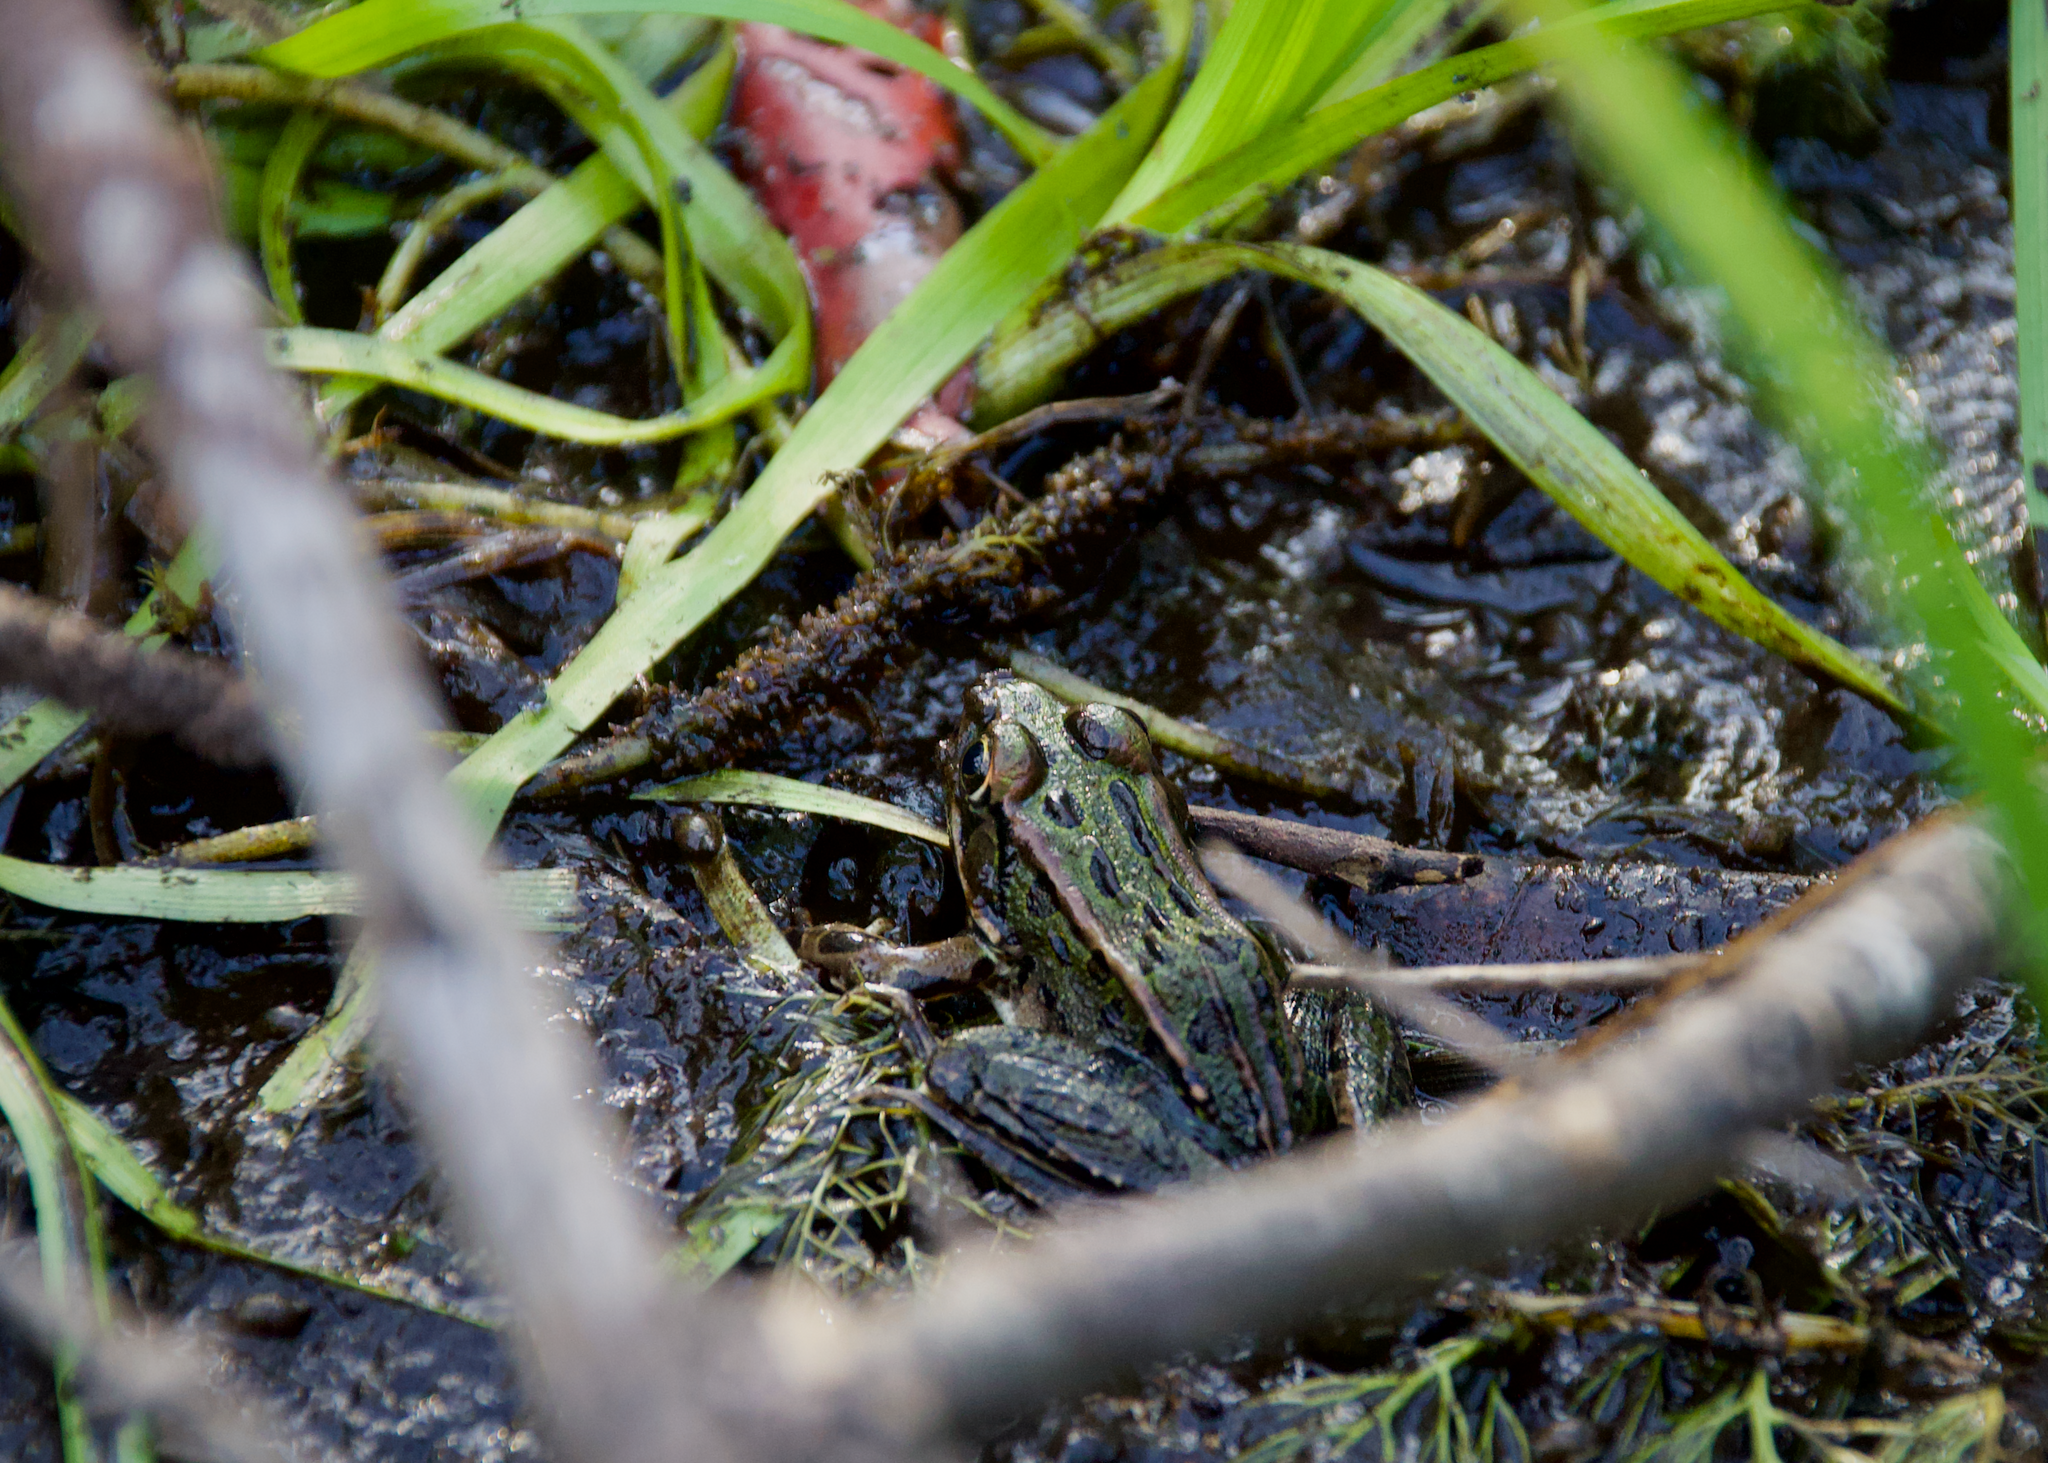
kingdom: Animalia
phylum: Chordata
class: Amphibia
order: Anura
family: Ranidae
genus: Lithobates
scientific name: Lithobates pipiens
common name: Northern leopard frog
